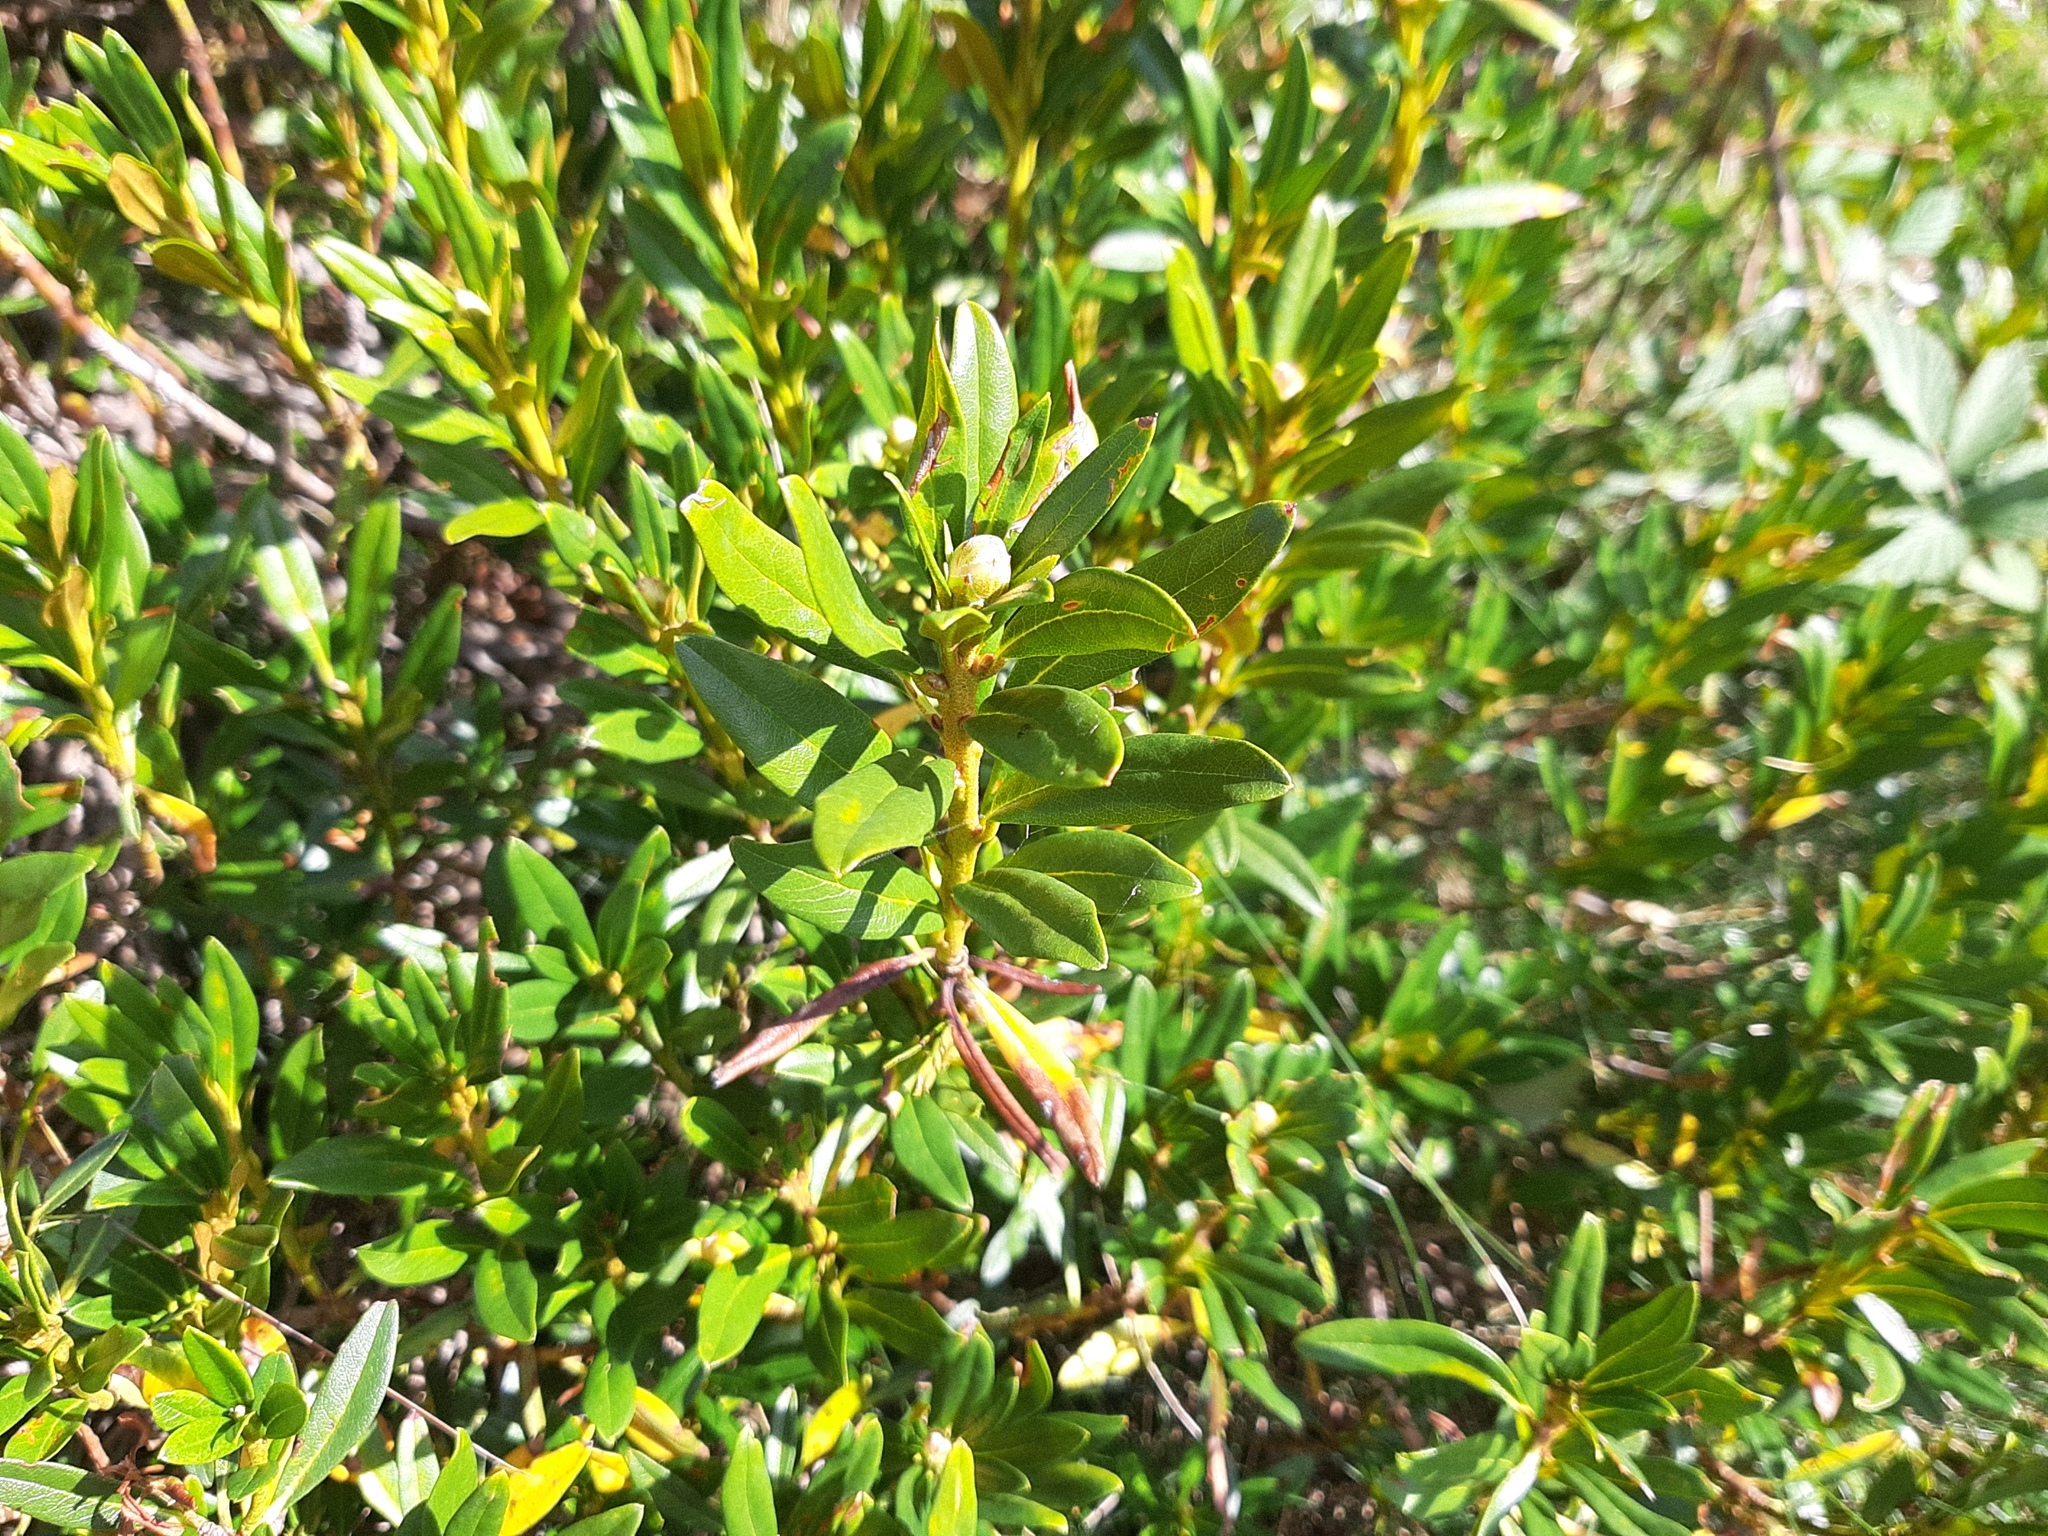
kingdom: Plantae
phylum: Tracheophyta
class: Magnoliopsida
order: Ericales
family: Ericaceae
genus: Rhododendron
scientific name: Rhododendron ferrugineum
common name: Alpenrose
